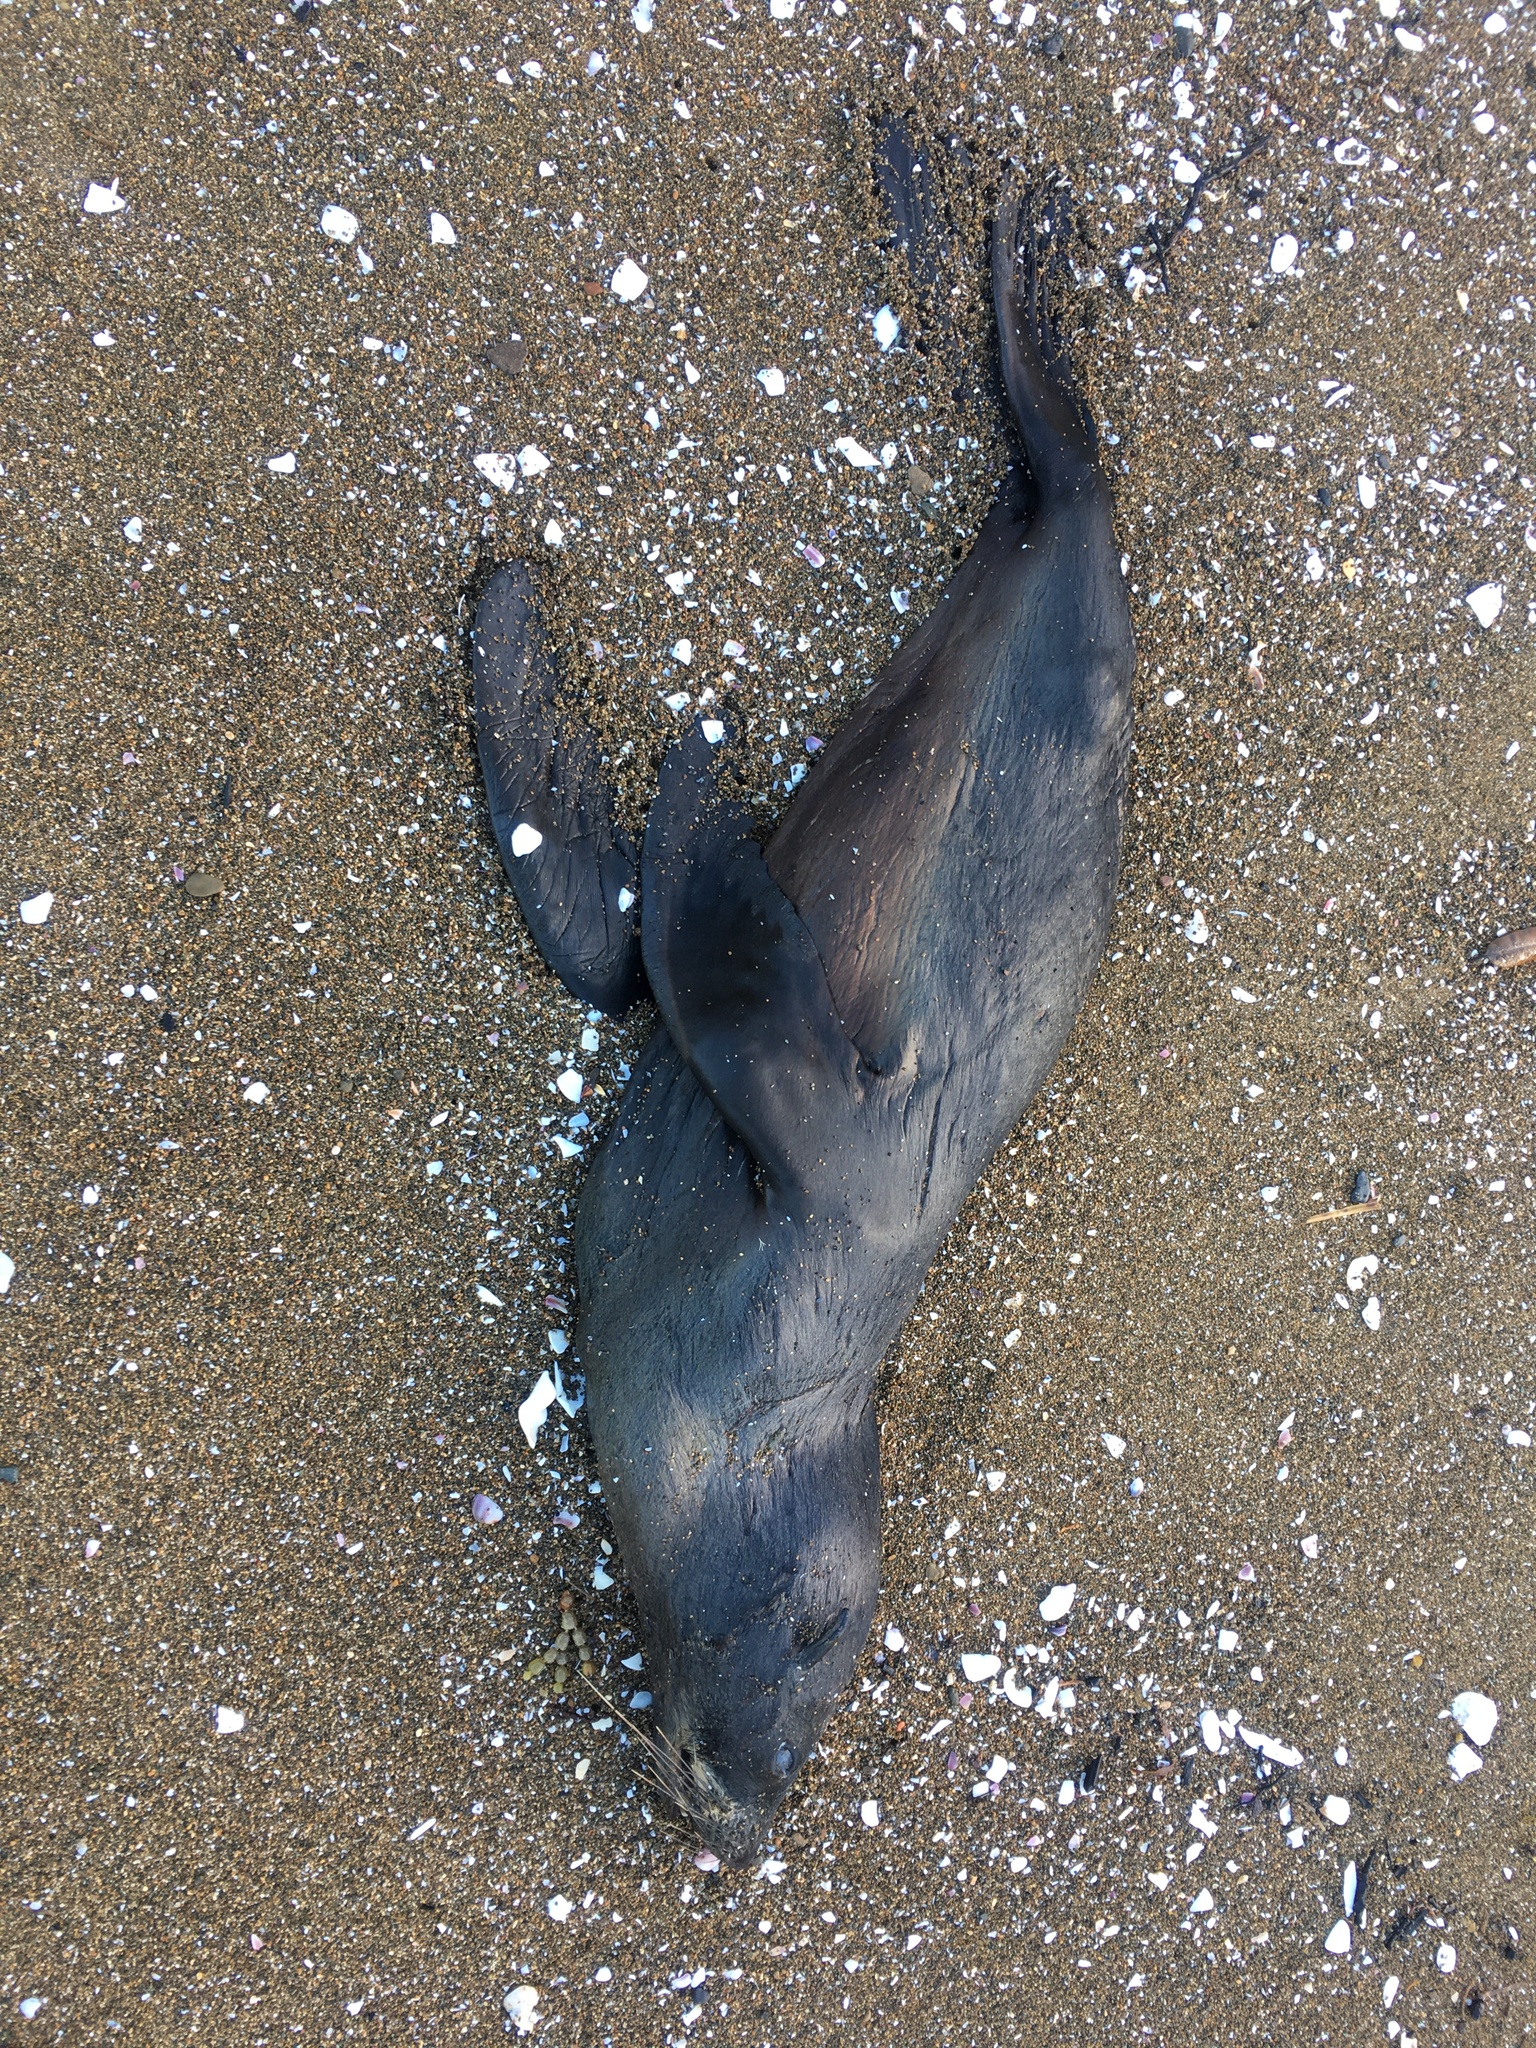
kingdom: Animalia
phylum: Chordata
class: Mammalia
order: Carnivora
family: Otariidae
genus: Arctocephalus
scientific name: Arctocephalus forsteri
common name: New zealand fur seal
